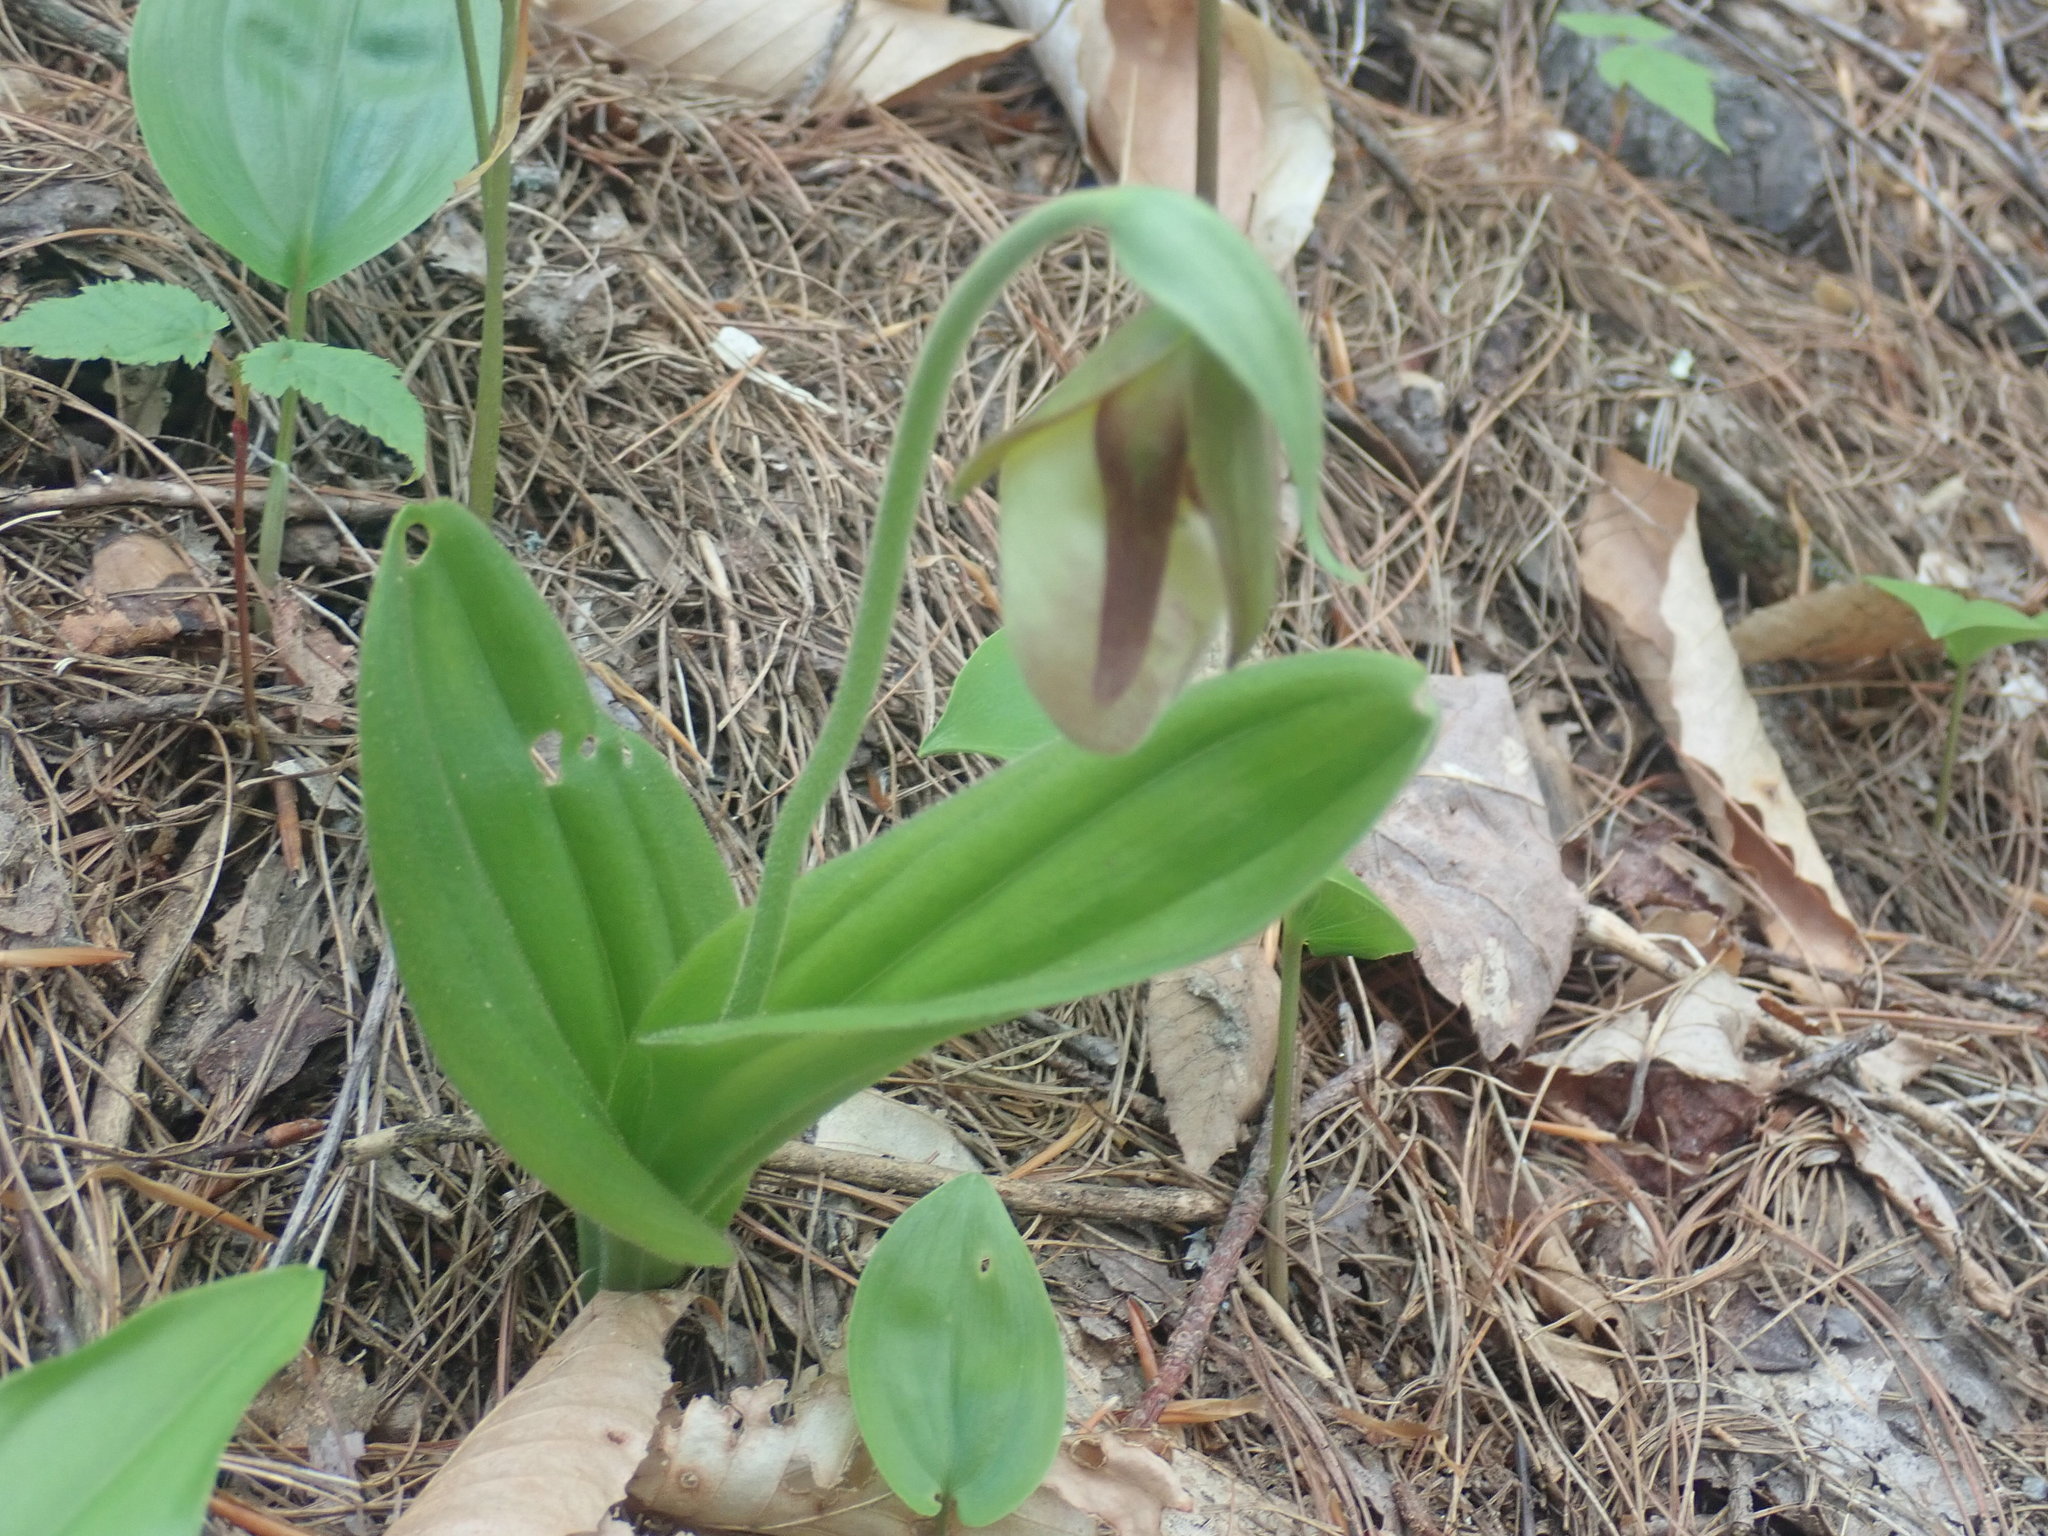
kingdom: Plantae
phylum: Tracheophyta
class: Liliopsida
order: Asparagales
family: Orchidaceae
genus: Cypripedium
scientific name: Cypripedium acaule
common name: Pink lady's-slipper
